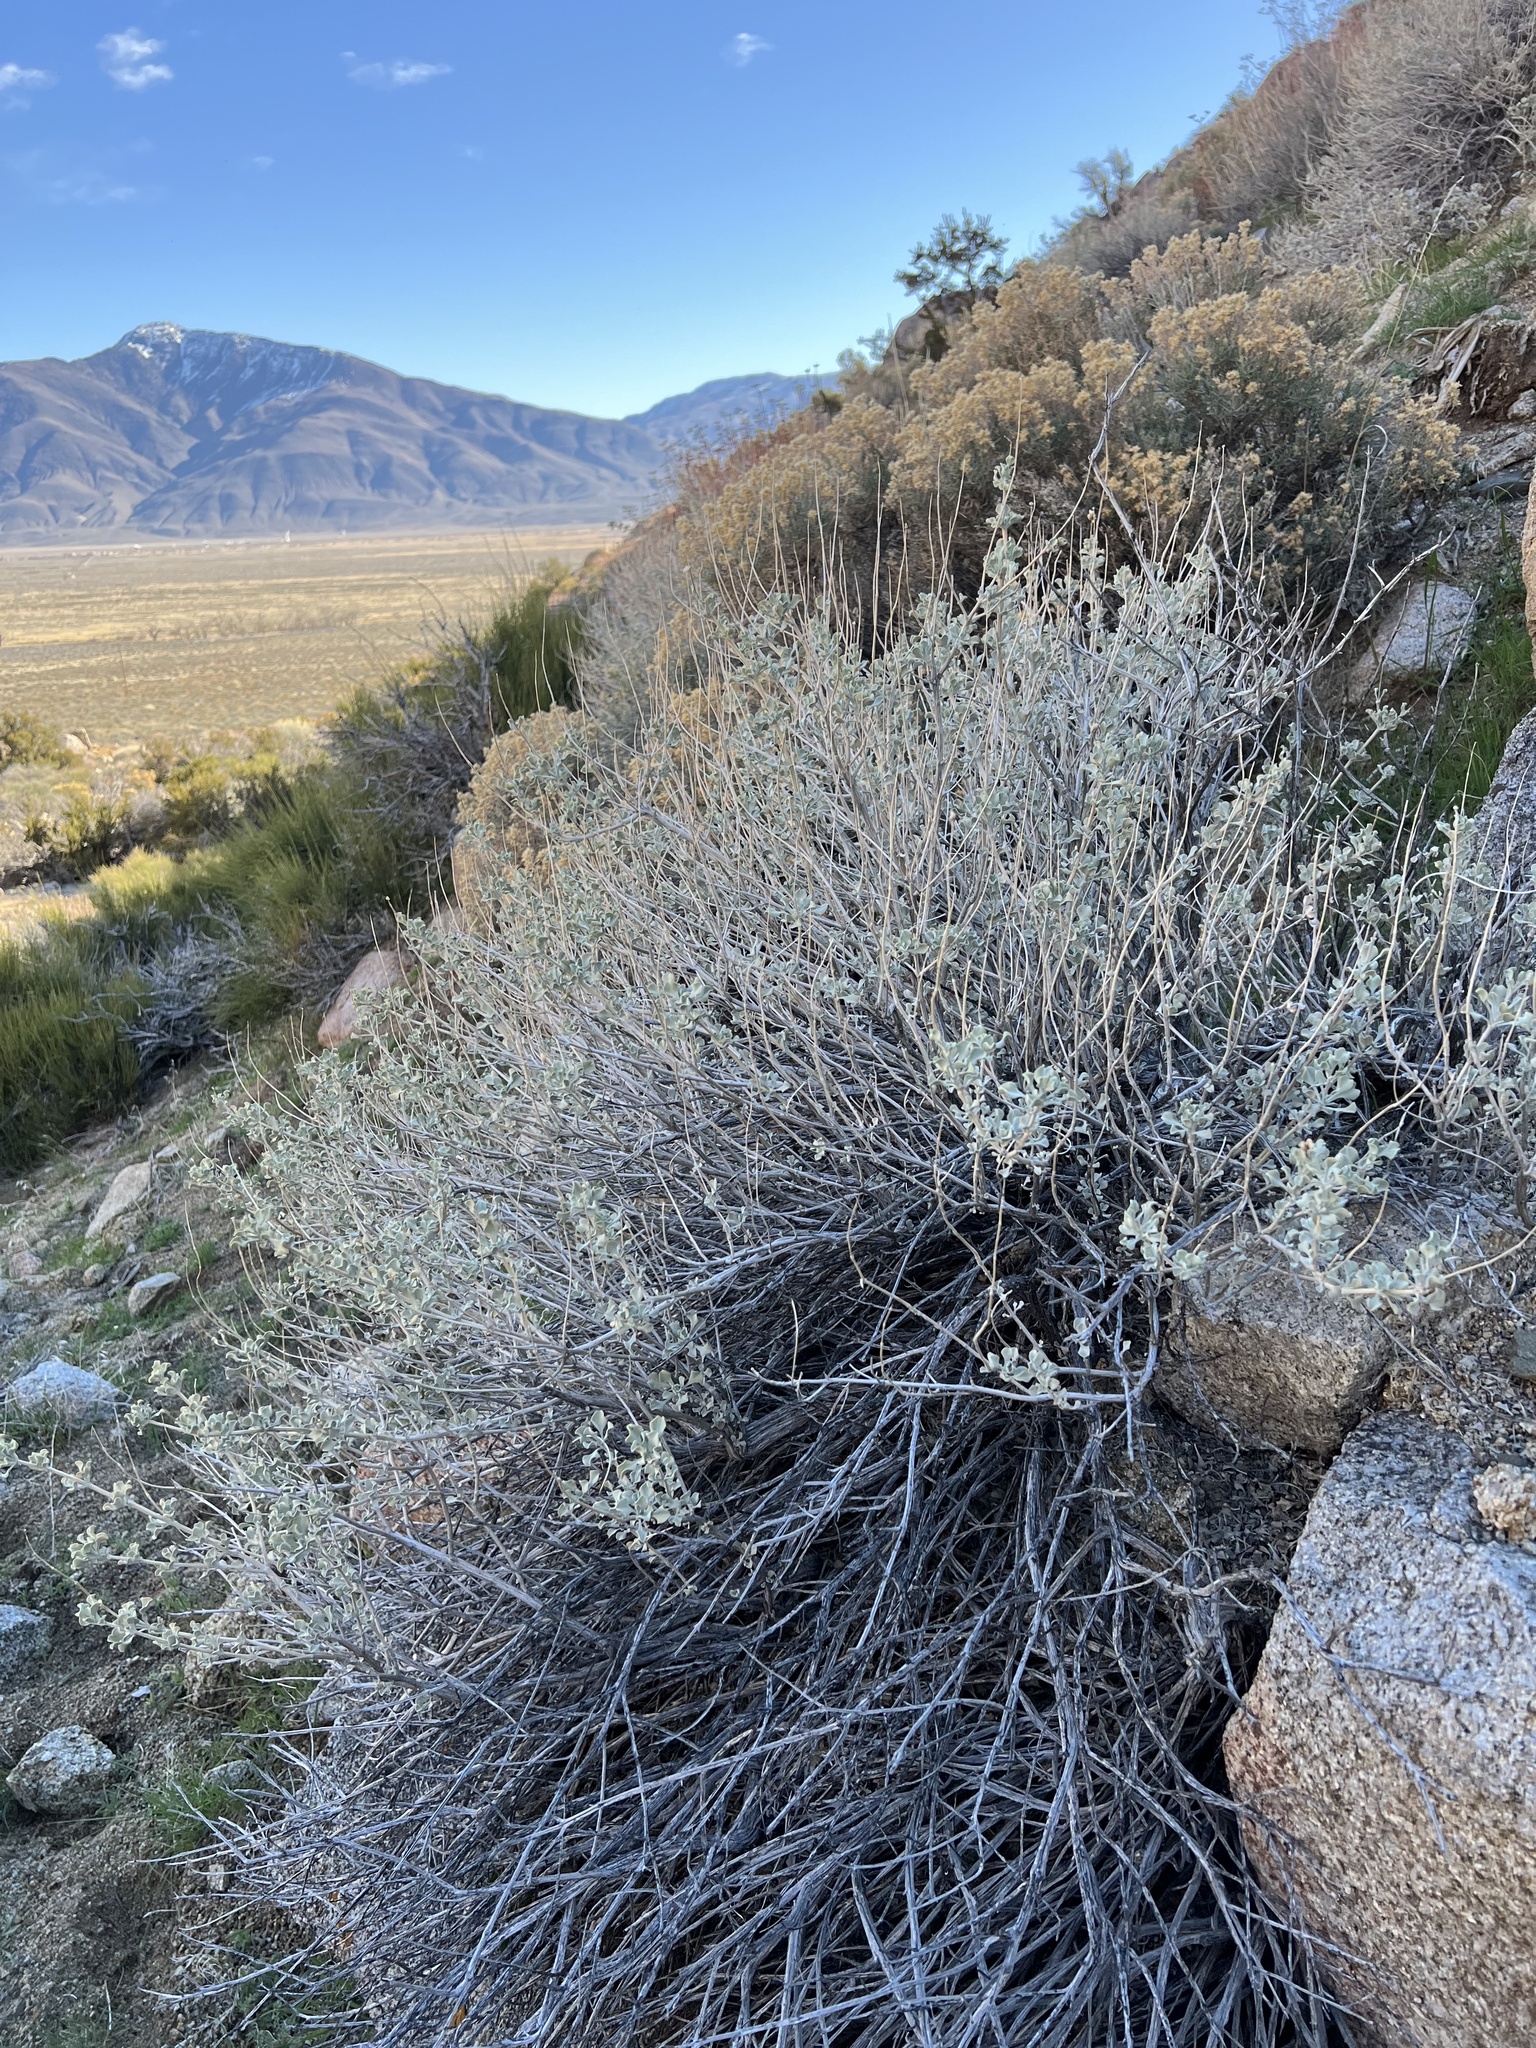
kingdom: Plantae
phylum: Tracheophyta
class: Magnoliopsida
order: Lamiales
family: Lamiaceae
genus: Salvia
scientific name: Salvia dorrii
